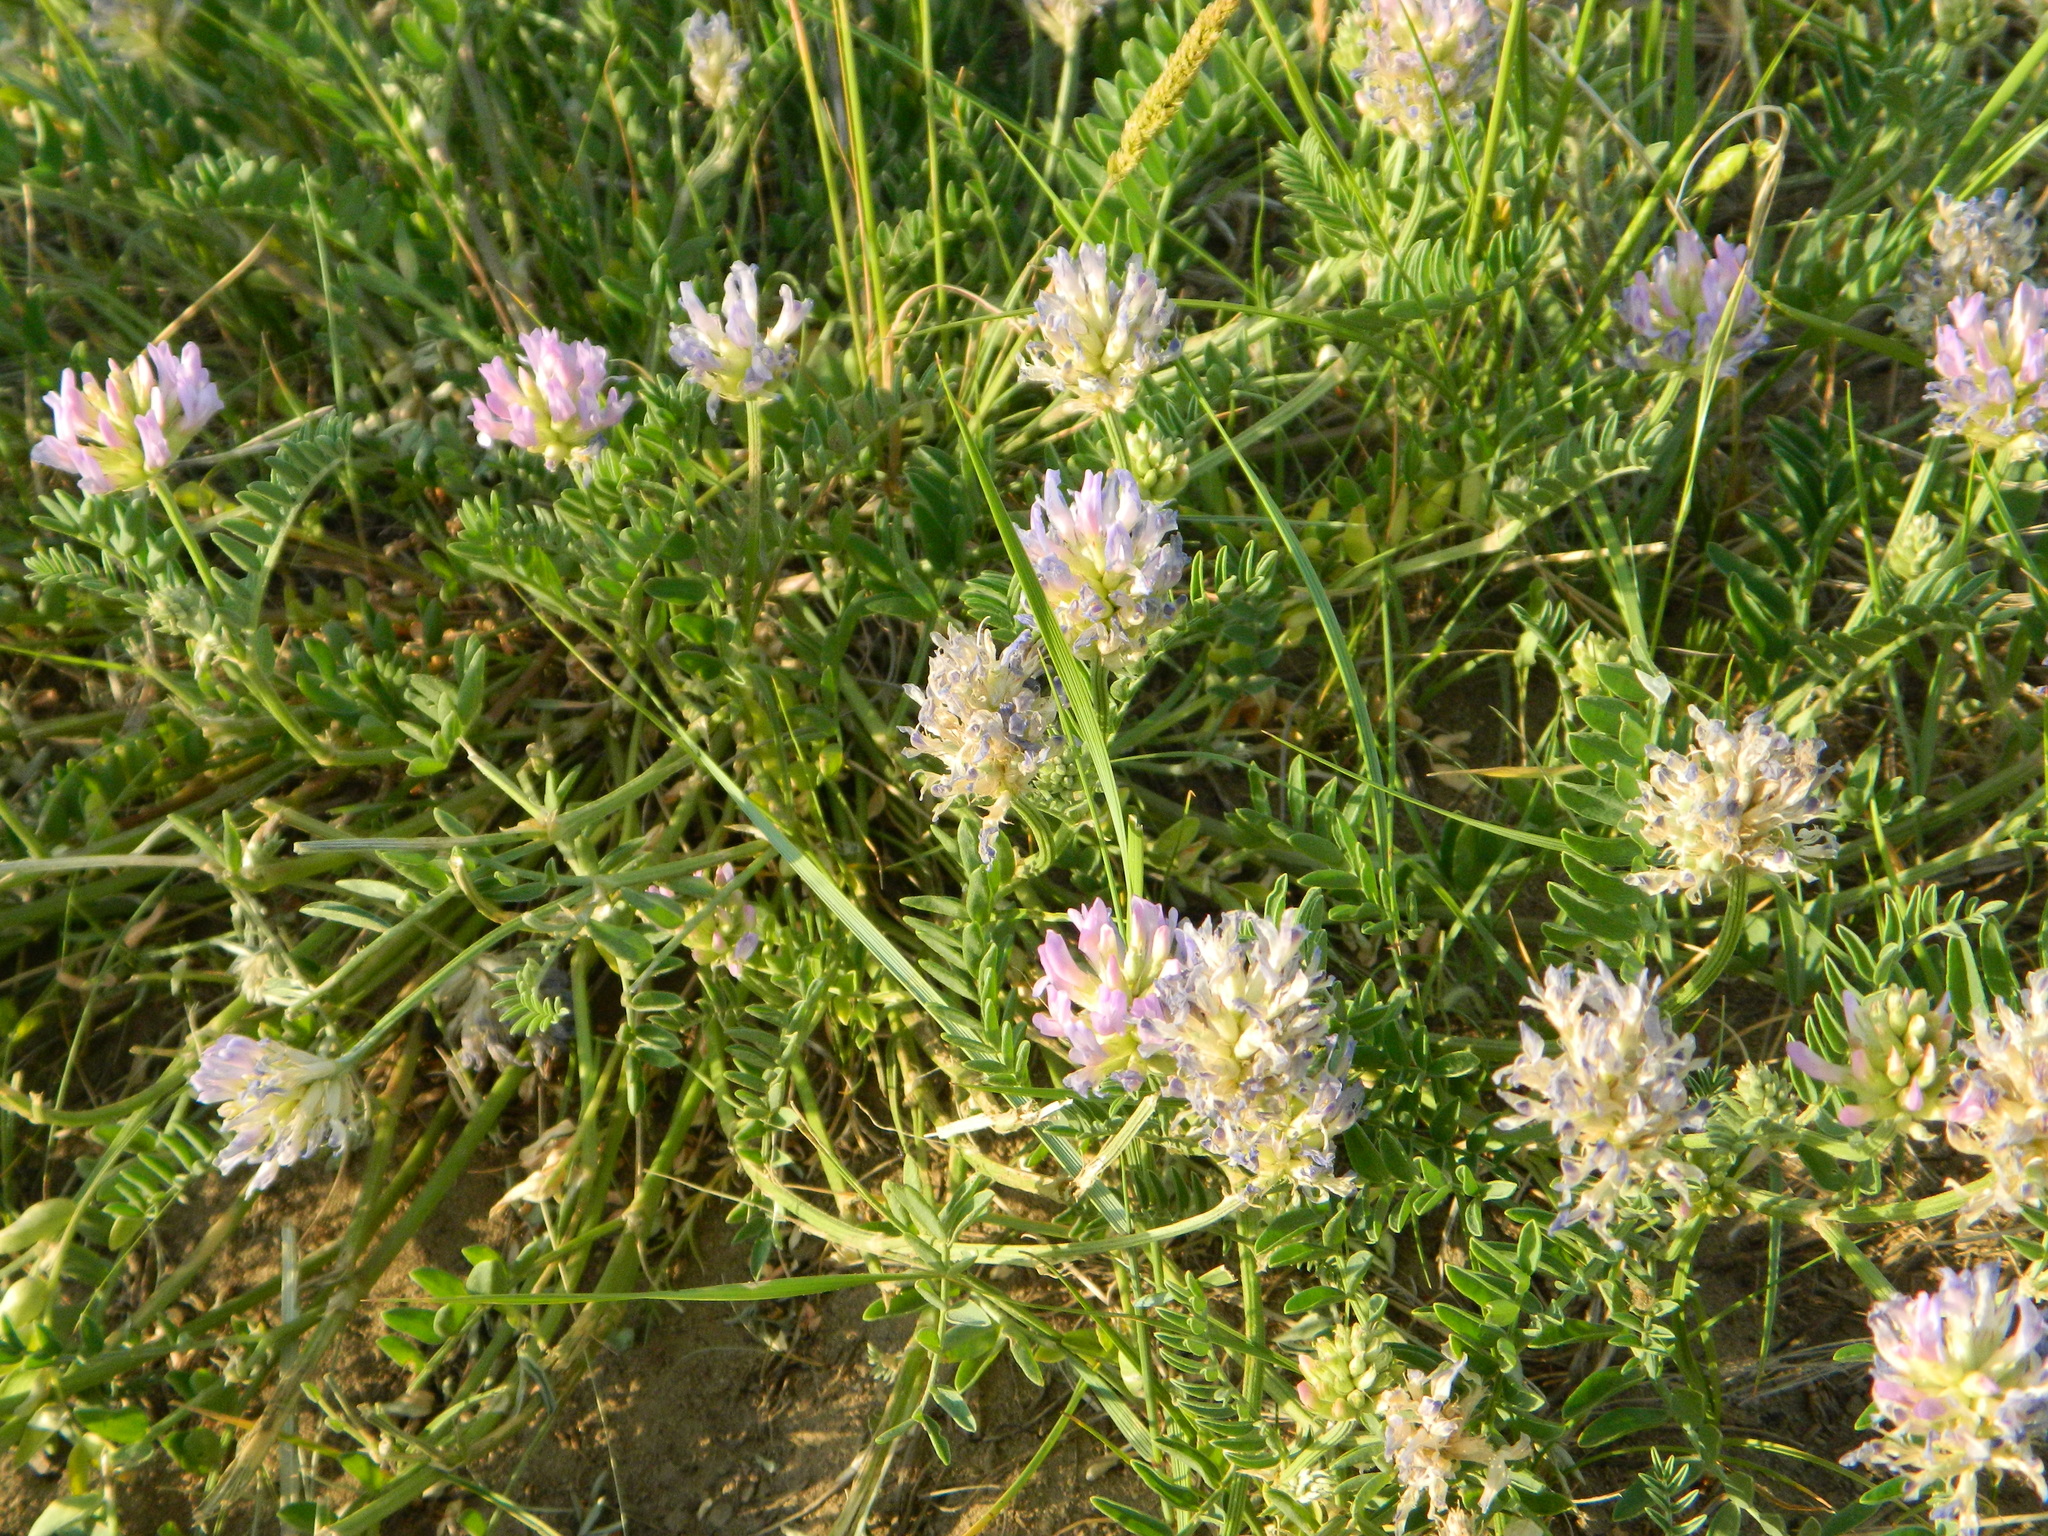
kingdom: Plantae
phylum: Tracheophyta
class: Magnoliopsida
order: Fabales
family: Fabaceae
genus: Astragalus
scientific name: Astragalus laxmannii
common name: Laxmann's milk-vetch
